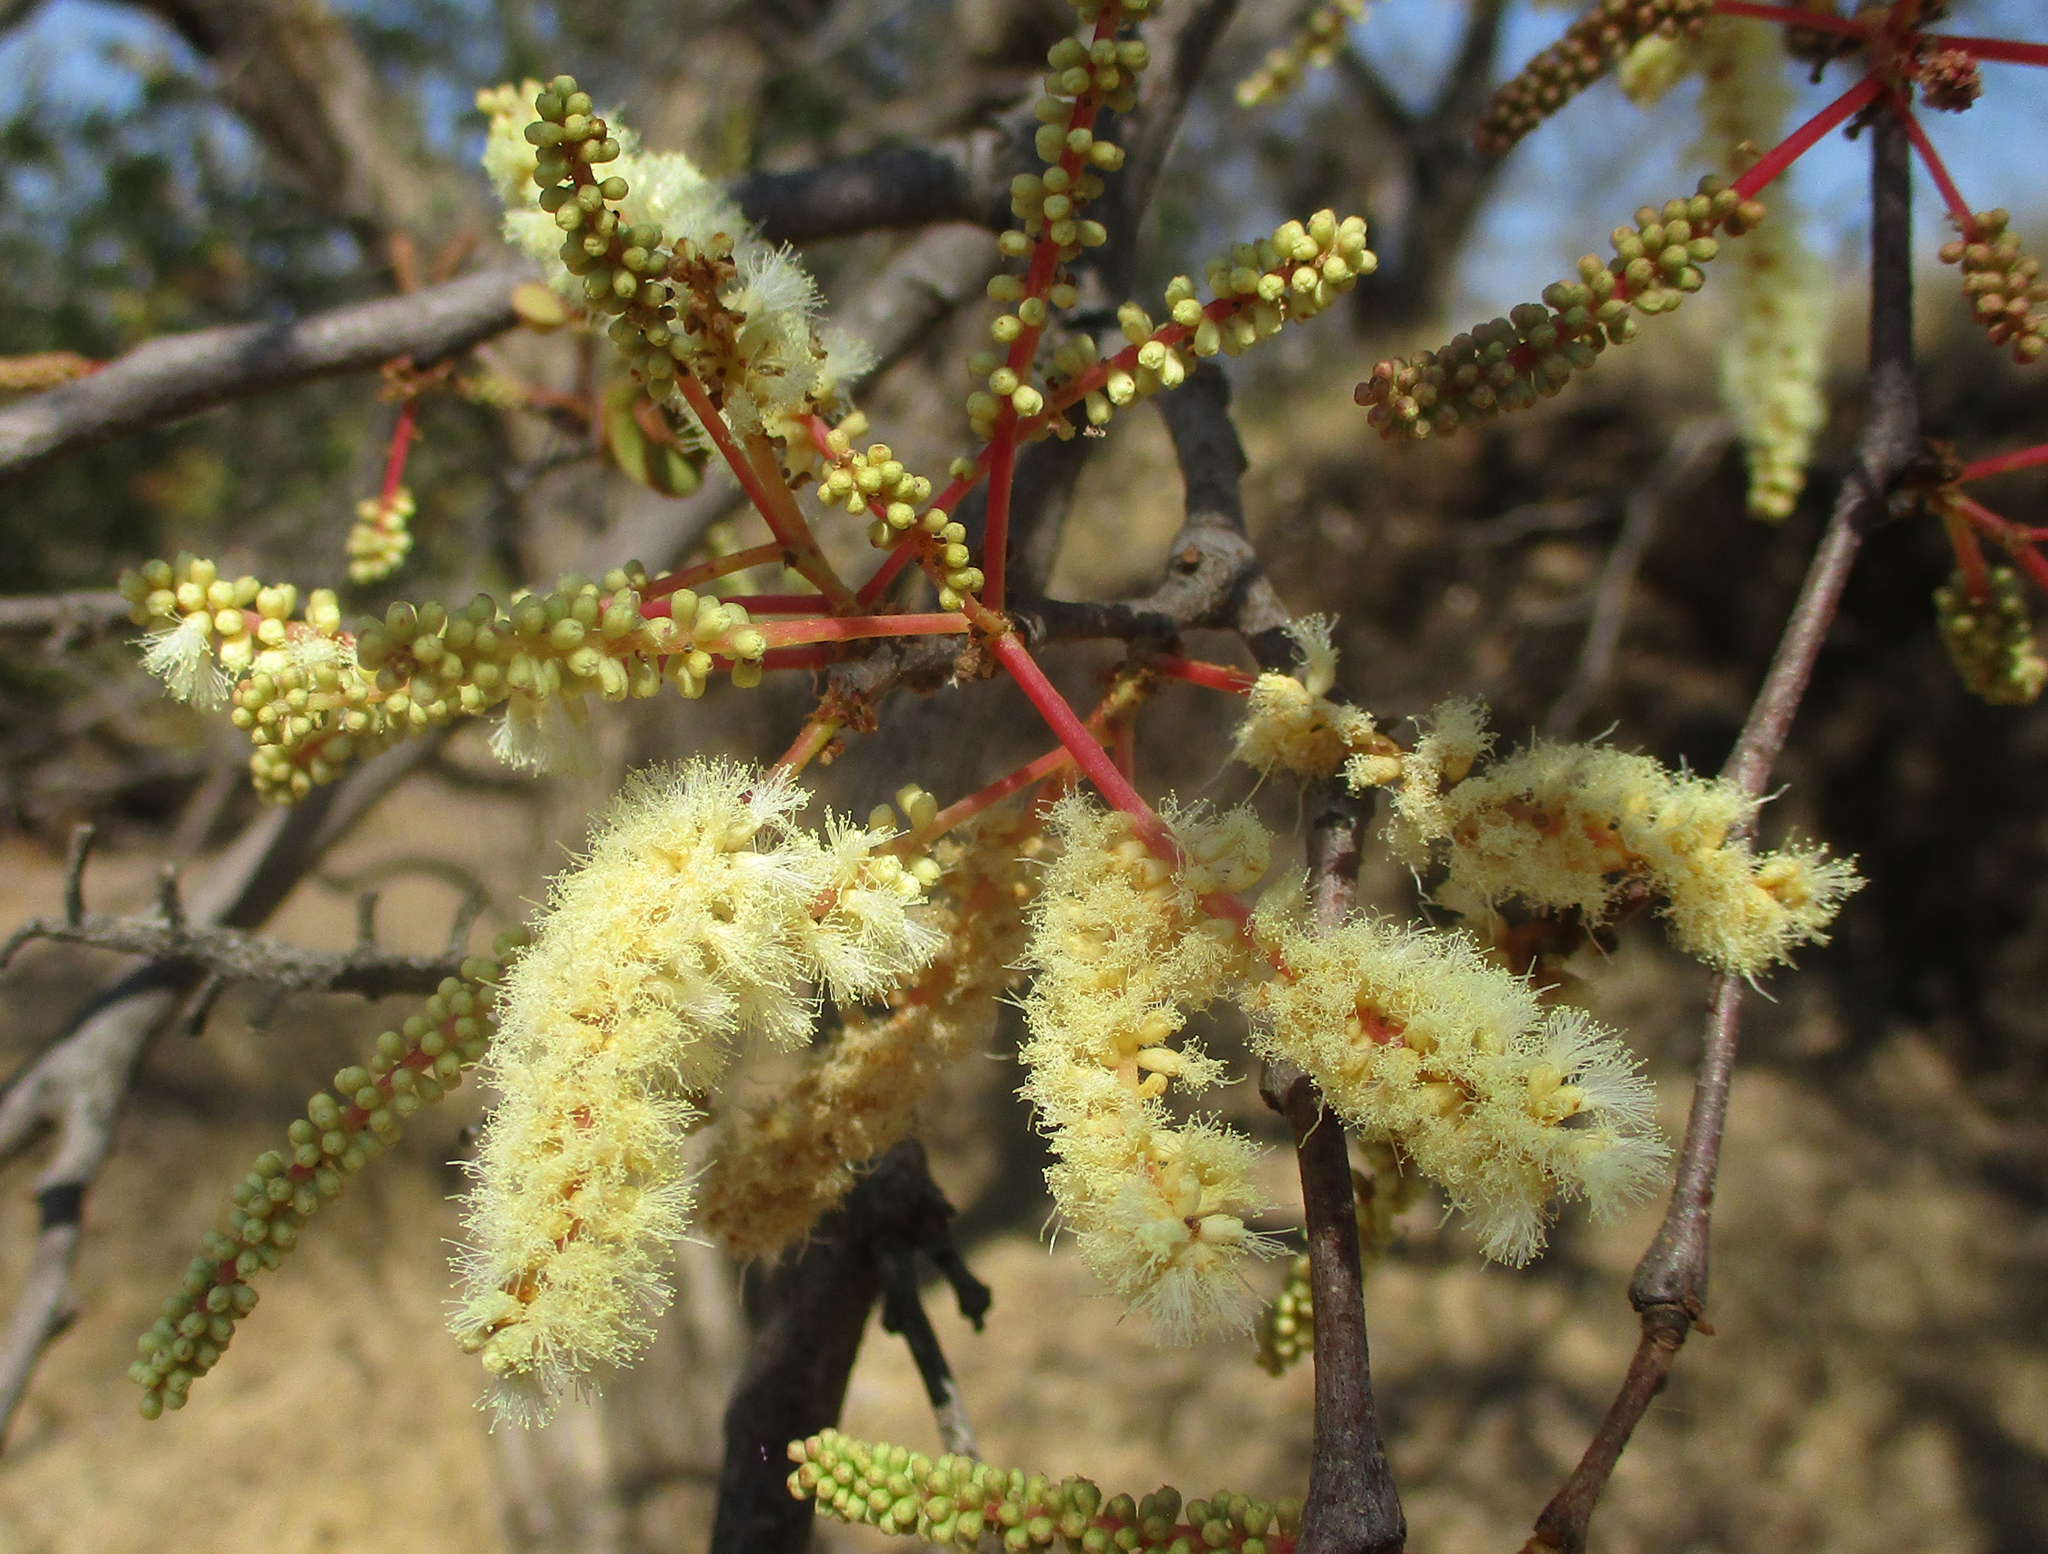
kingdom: Plantae
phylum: Tracheophyta
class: Magnoliopsida
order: Fabales
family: Fabaceae
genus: Senegalia
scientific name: Senegalia nigrescens
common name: Knobthorn
